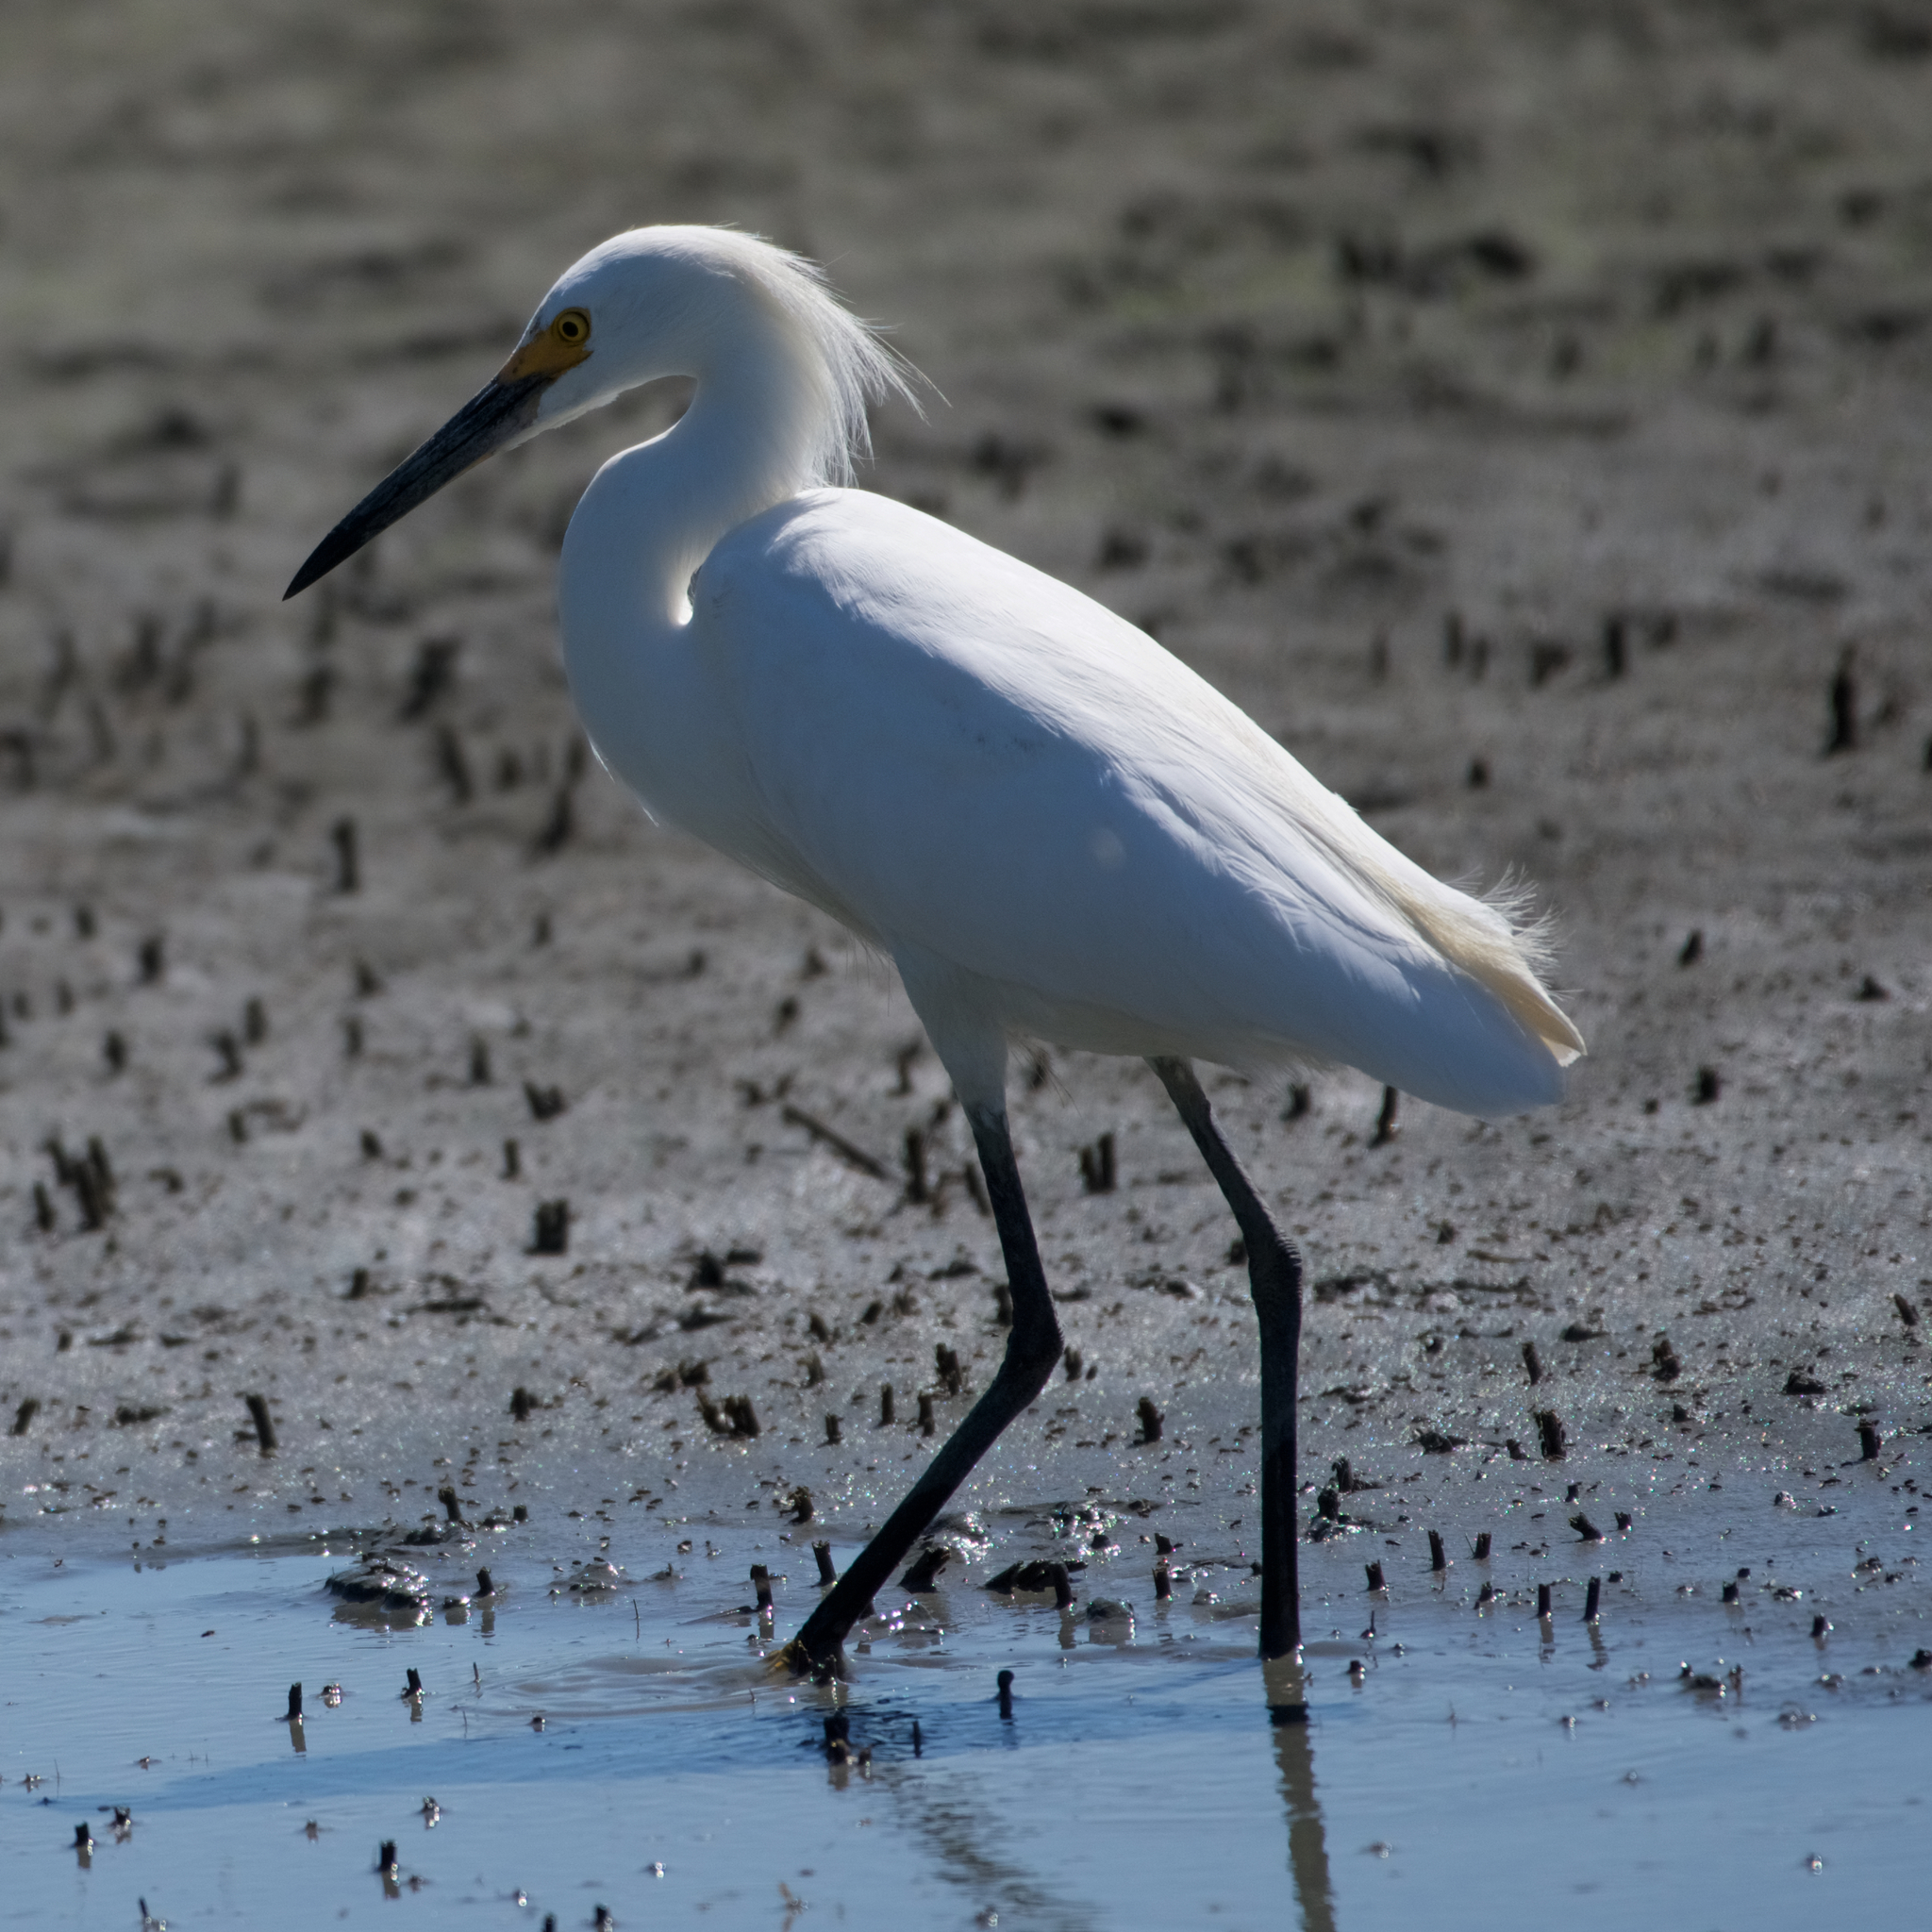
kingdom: Animalia
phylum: Chordata
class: Aves
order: Pelecaniformes
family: Ardeidae
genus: Egretta
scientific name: Egretta thula
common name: Snowy egret
